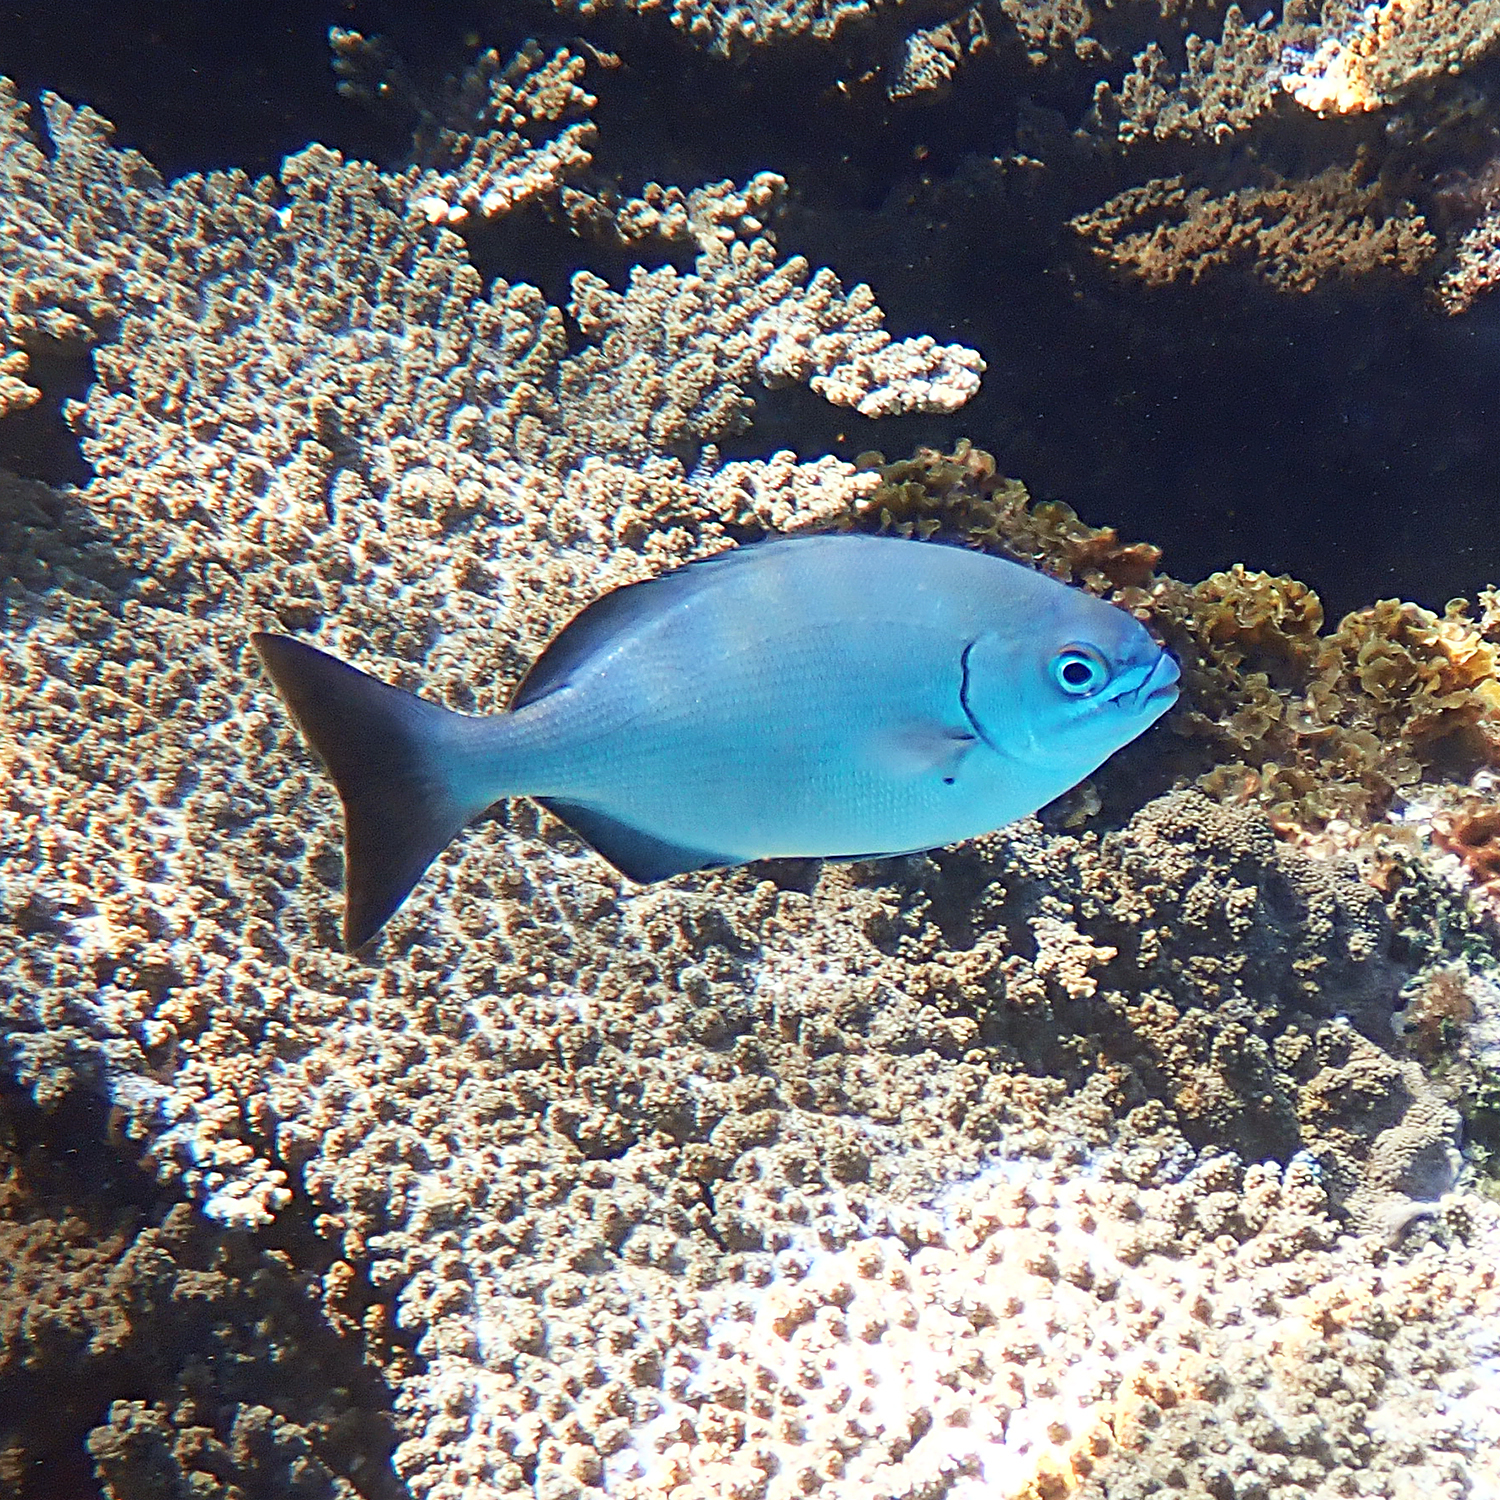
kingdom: Animalia
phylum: Chordata
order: Perciformes
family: Kyphosidae
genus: Kyphosus
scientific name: Kyphosus bigibbus
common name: Brown chub
